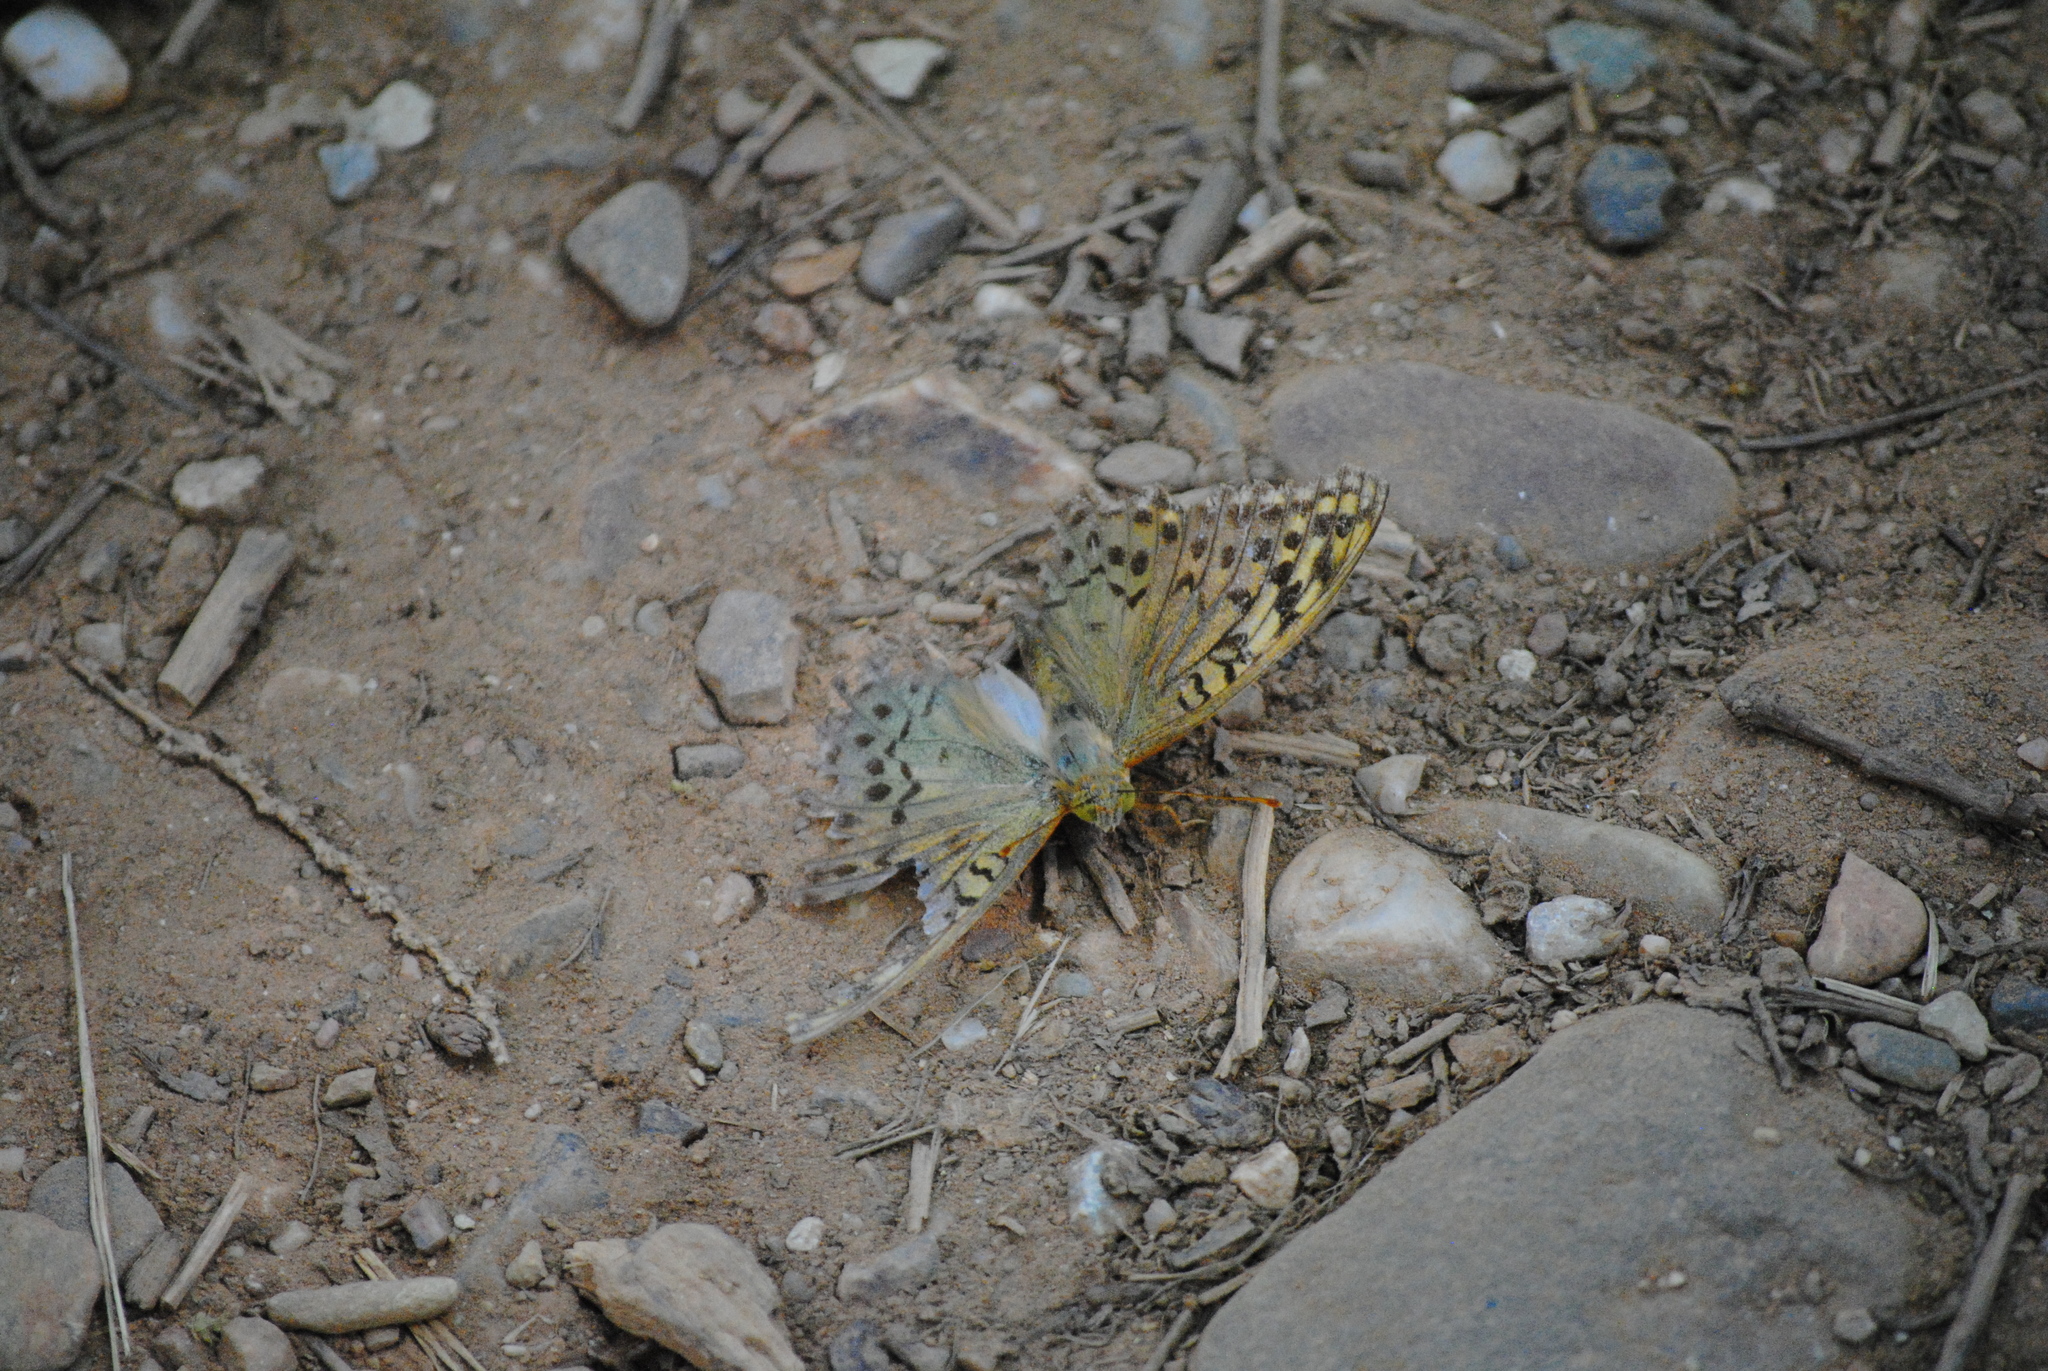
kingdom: Animalia
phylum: Arthropoda
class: Insecta
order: Lepidoptera
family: Nymphalidae
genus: Damora
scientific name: Damora pandora
